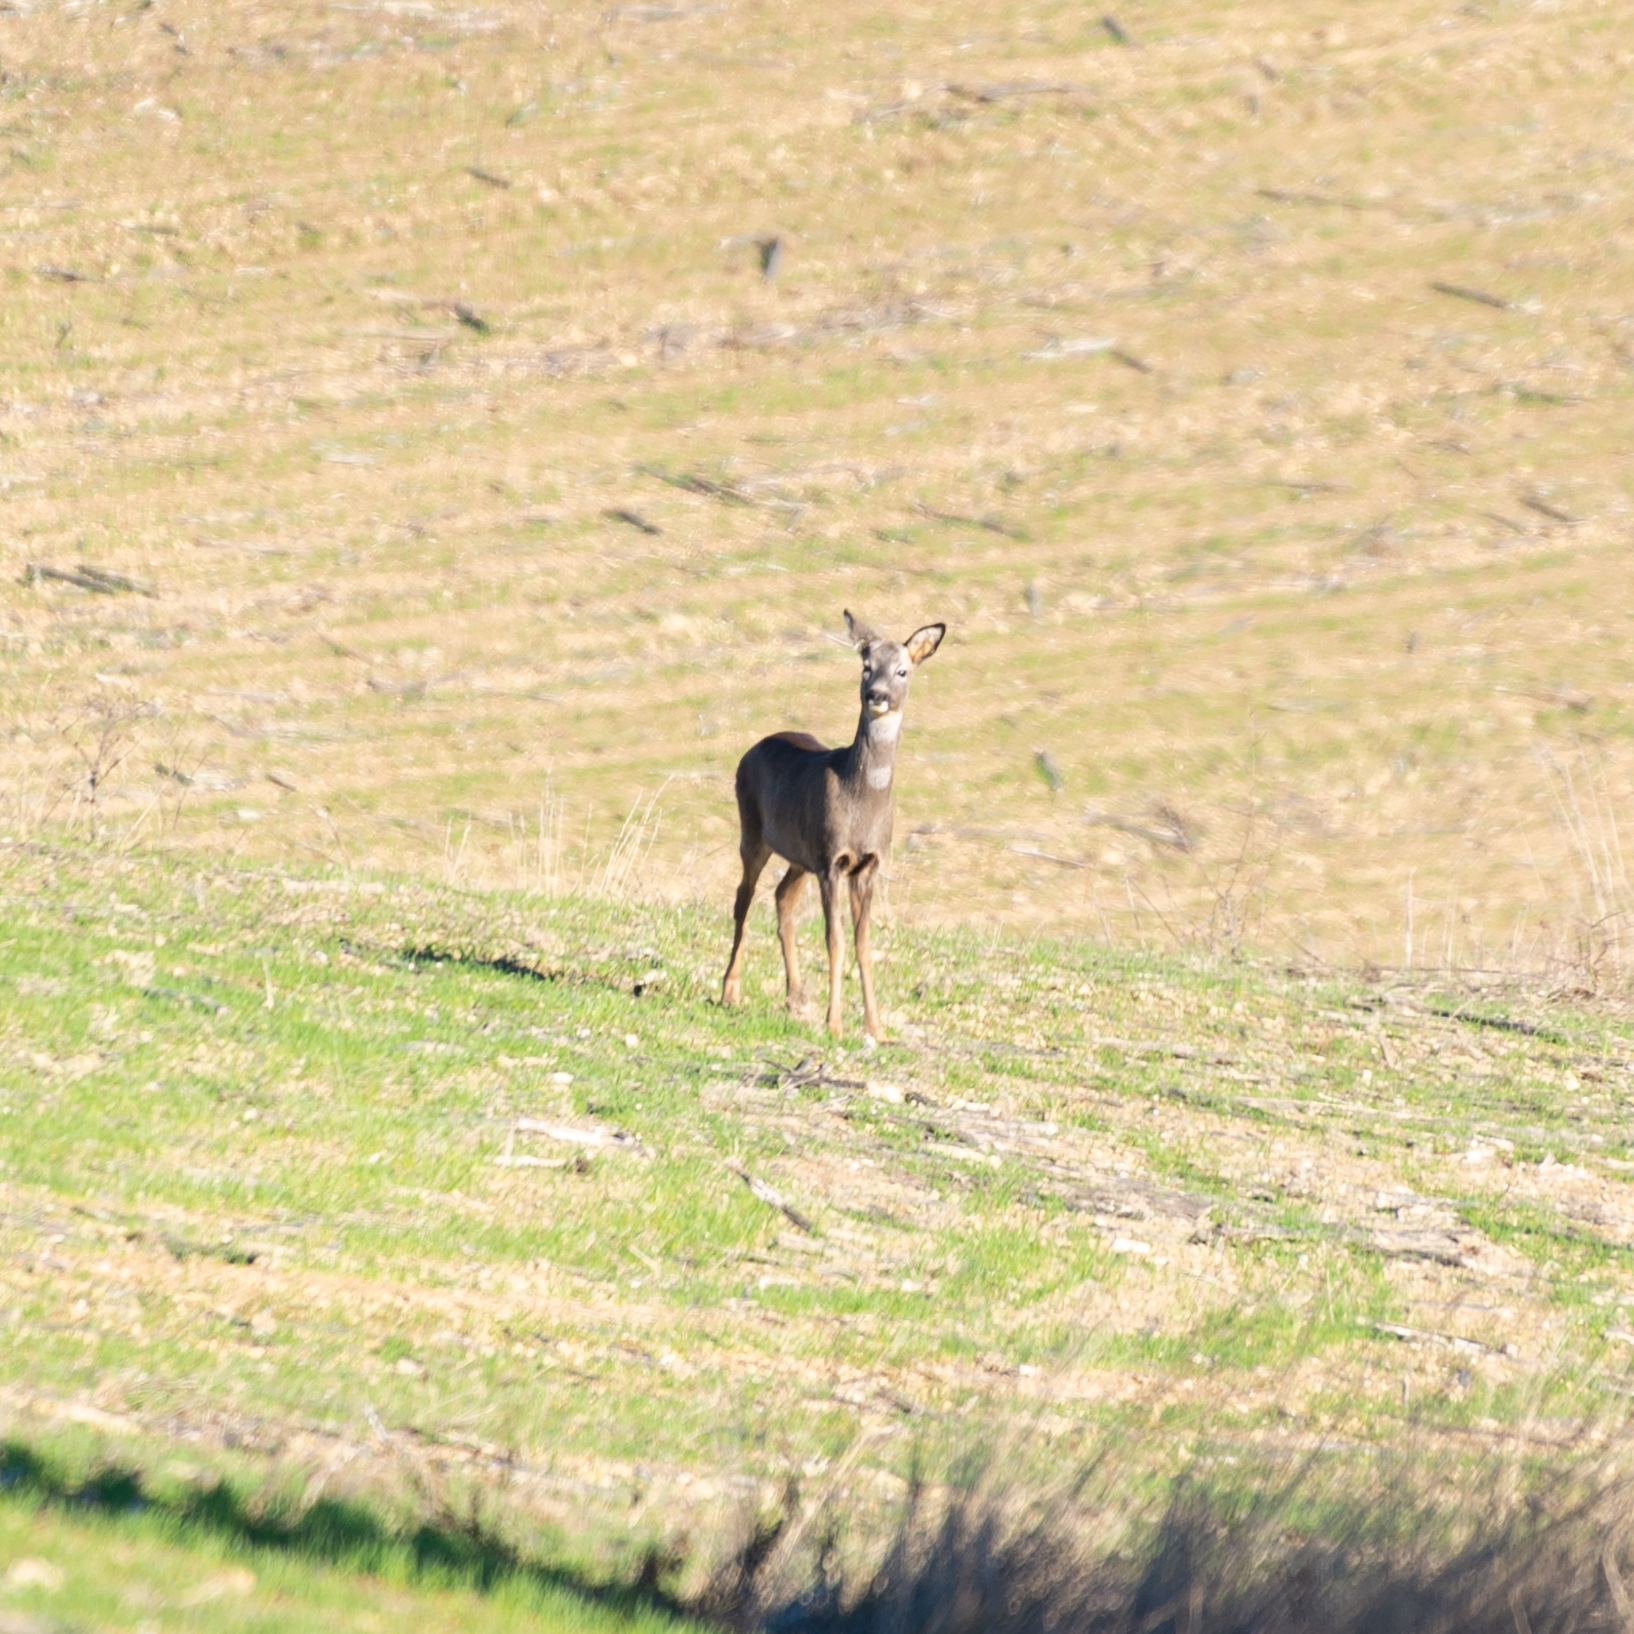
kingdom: Animalia
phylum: Chordata
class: Mammalia
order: Artiodactyla
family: Cervidae
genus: Capreolus
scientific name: Capreolus capreolus
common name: Western roe deer
